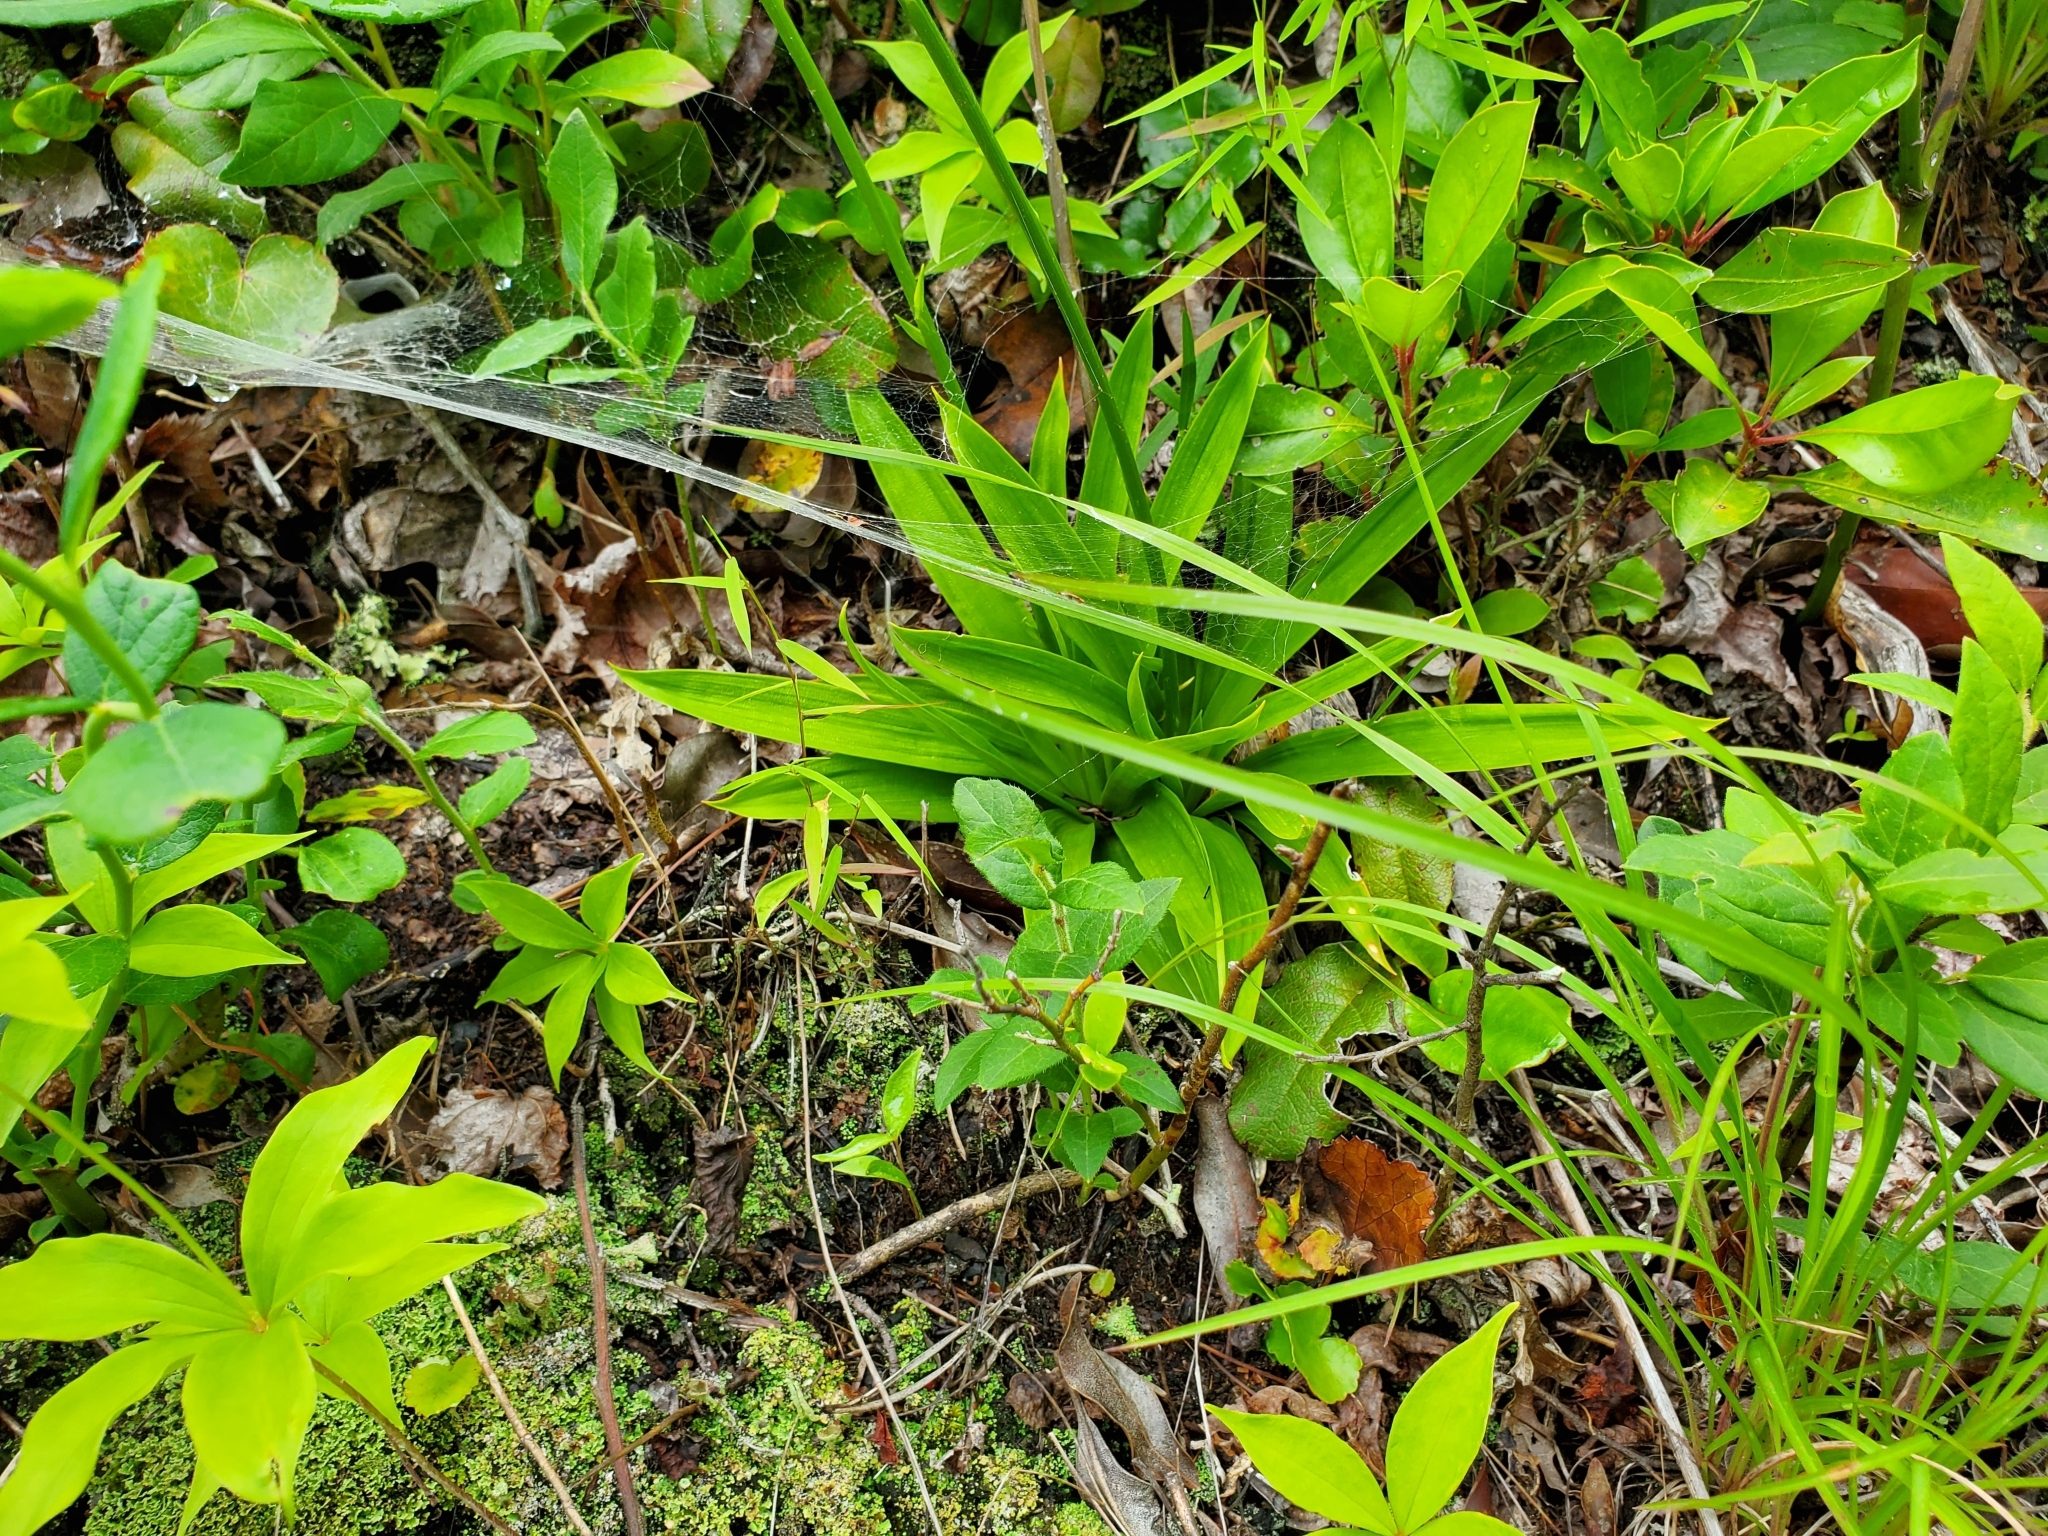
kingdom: Plantae
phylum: Tracheophyta
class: Liliopsida
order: Dioscoreales
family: Nartheciaceae
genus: Aletris
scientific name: Aletris farinosa
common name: Colicroot
